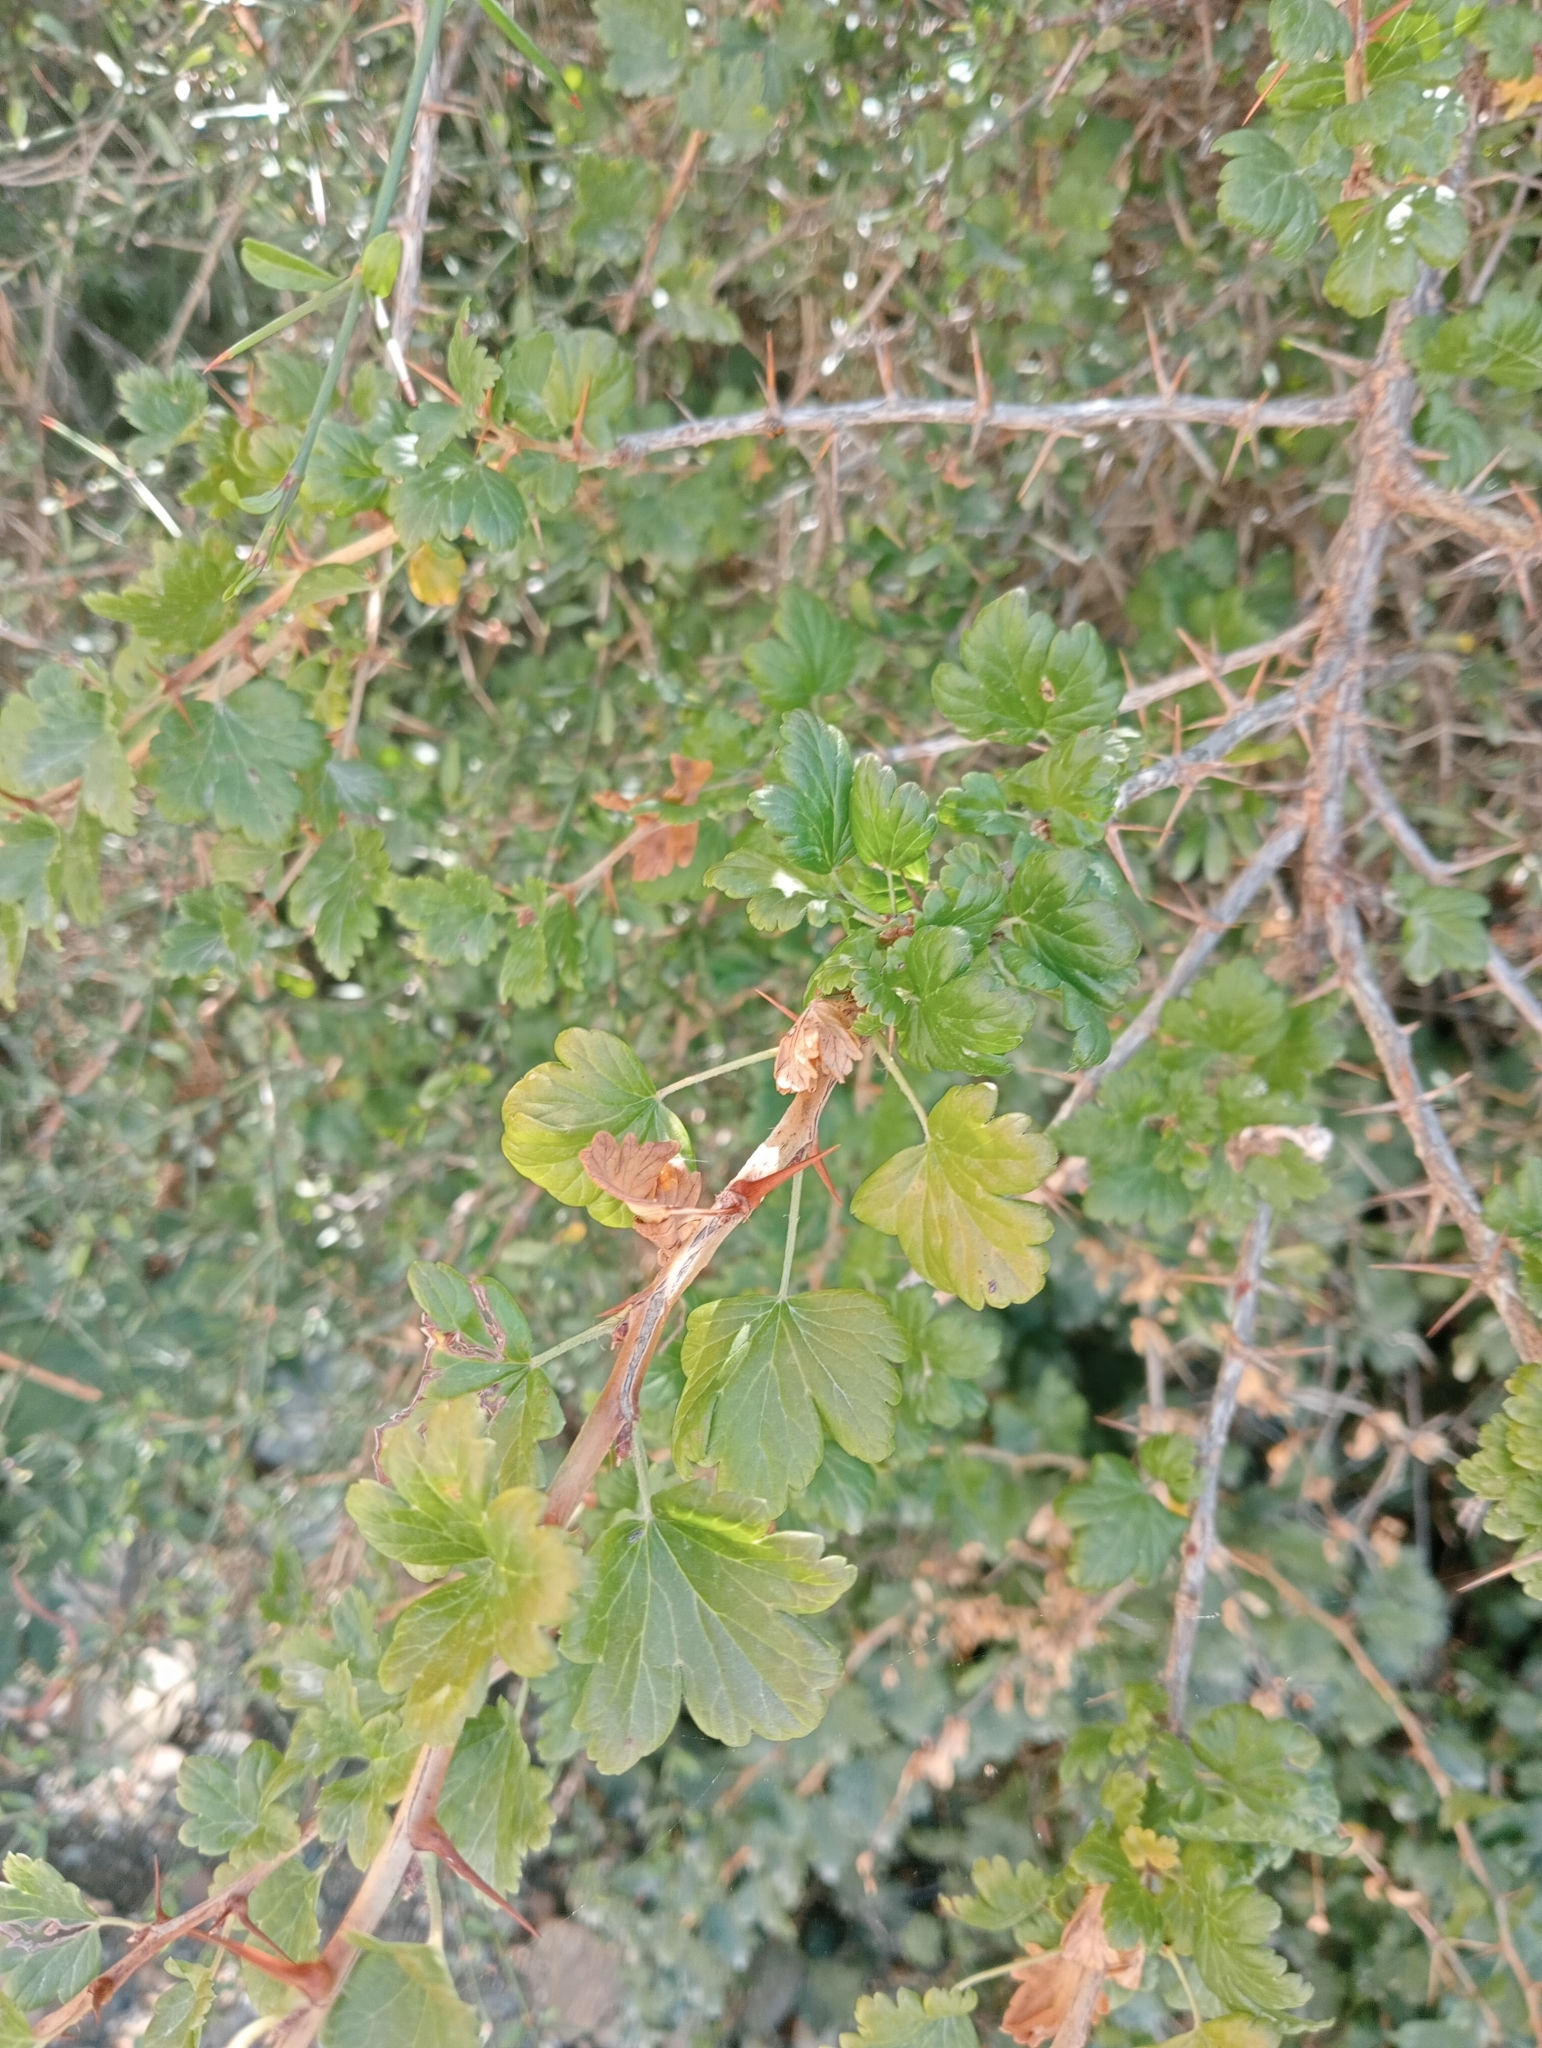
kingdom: Plantae
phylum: Tracheophyta
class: Magnoliopsida
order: Saxifragales
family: Grossulariaceae
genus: Ribes
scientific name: Ribes uva-crispa
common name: Gooseberry
